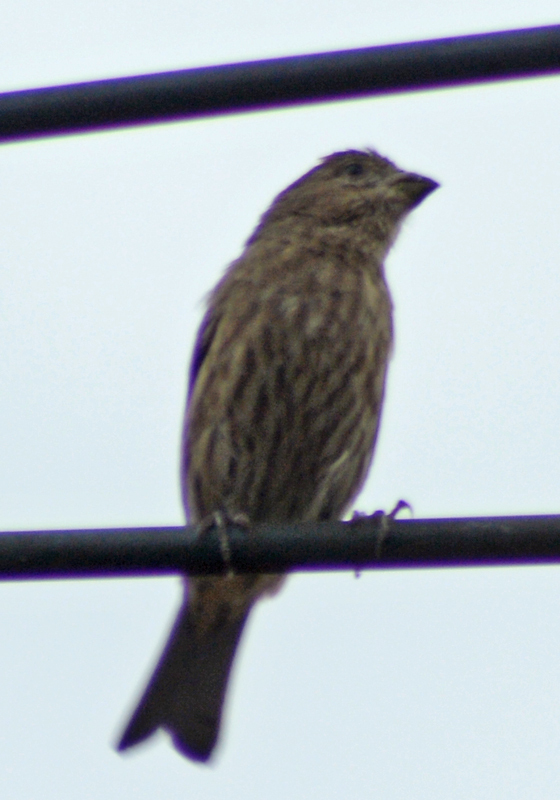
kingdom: Animalia
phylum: Chordata
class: Aves
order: Passeriformes
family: Fringillidae
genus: Haemorhous
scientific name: Haemorhous mexicanus
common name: House finch
